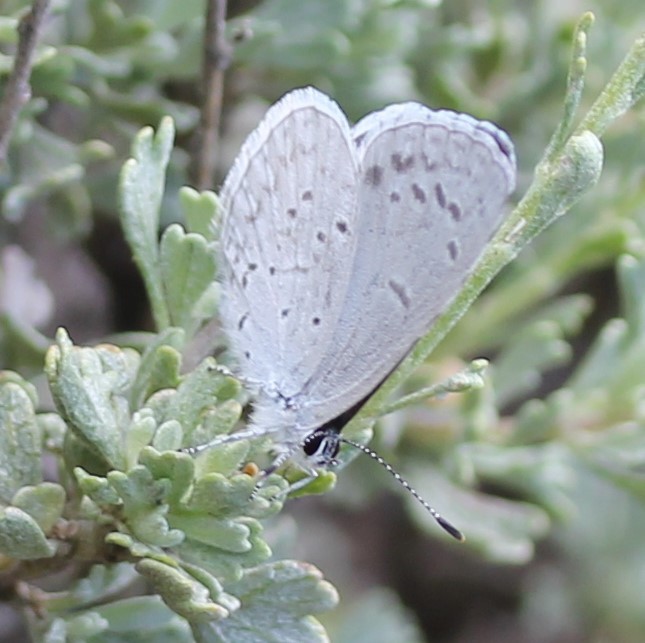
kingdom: Animalia
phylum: Arthropoda
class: Insecta
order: Lepidoptera
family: Lycaenidae
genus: Celastrina
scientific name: Celastrina ladon
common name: Spring azure
